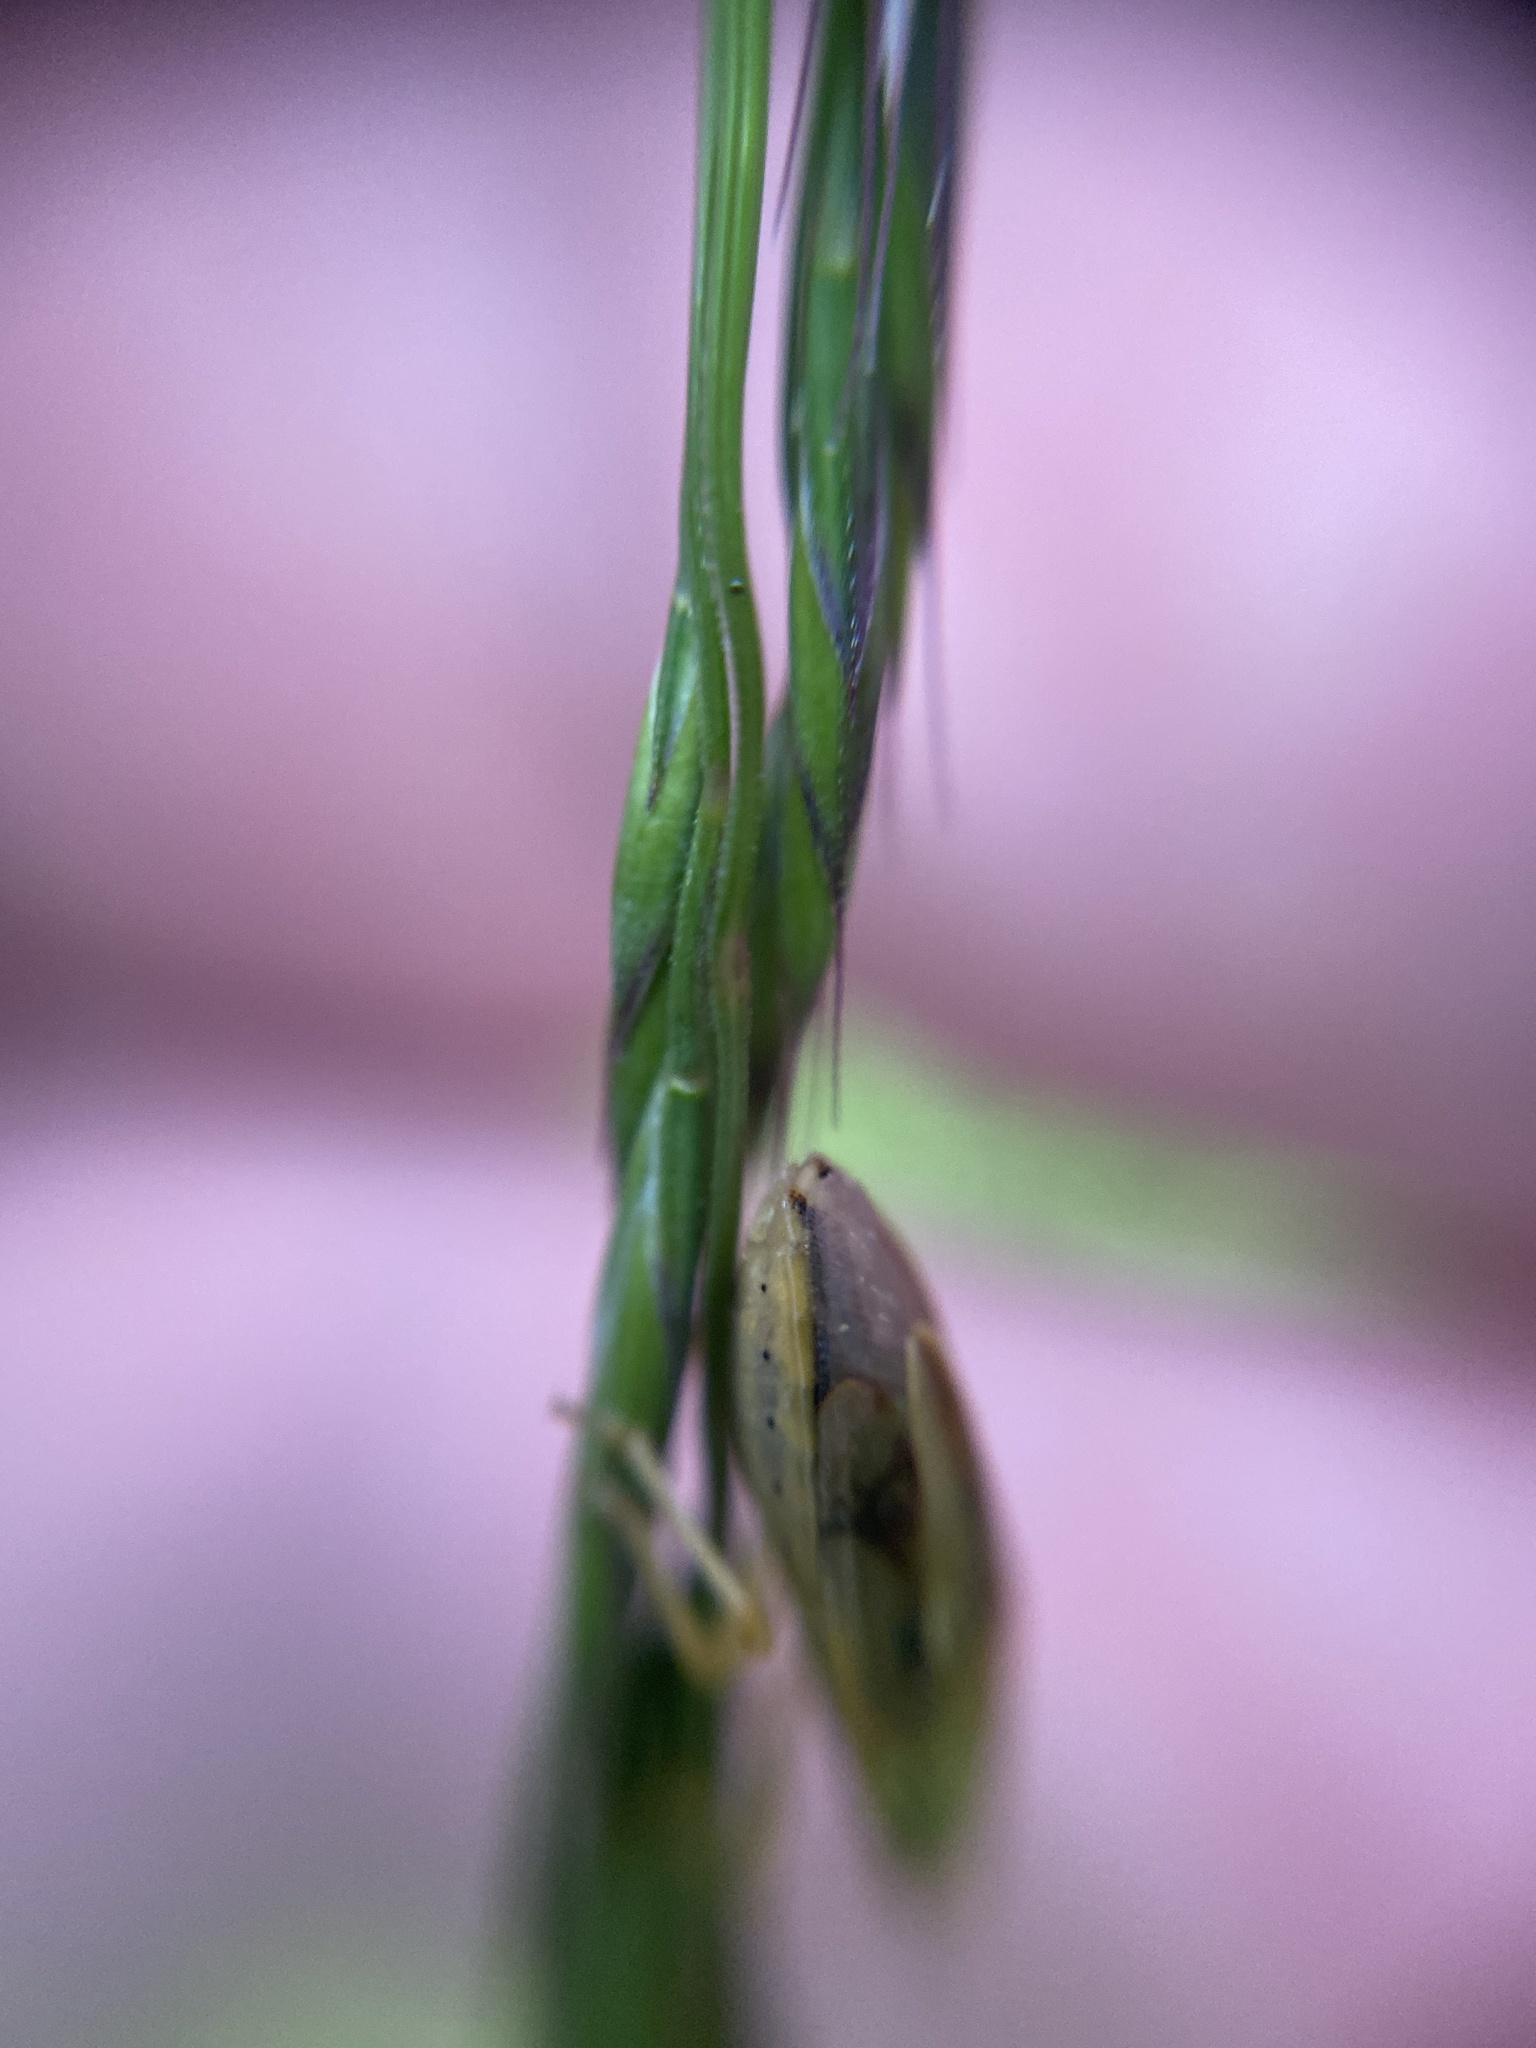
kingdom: Animalia
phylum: Arthropoda
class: Insecta
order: Hemiptera
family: Pentatomidae
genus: Aelia
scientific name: Aelia acuminata
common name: Bishop's mitre
